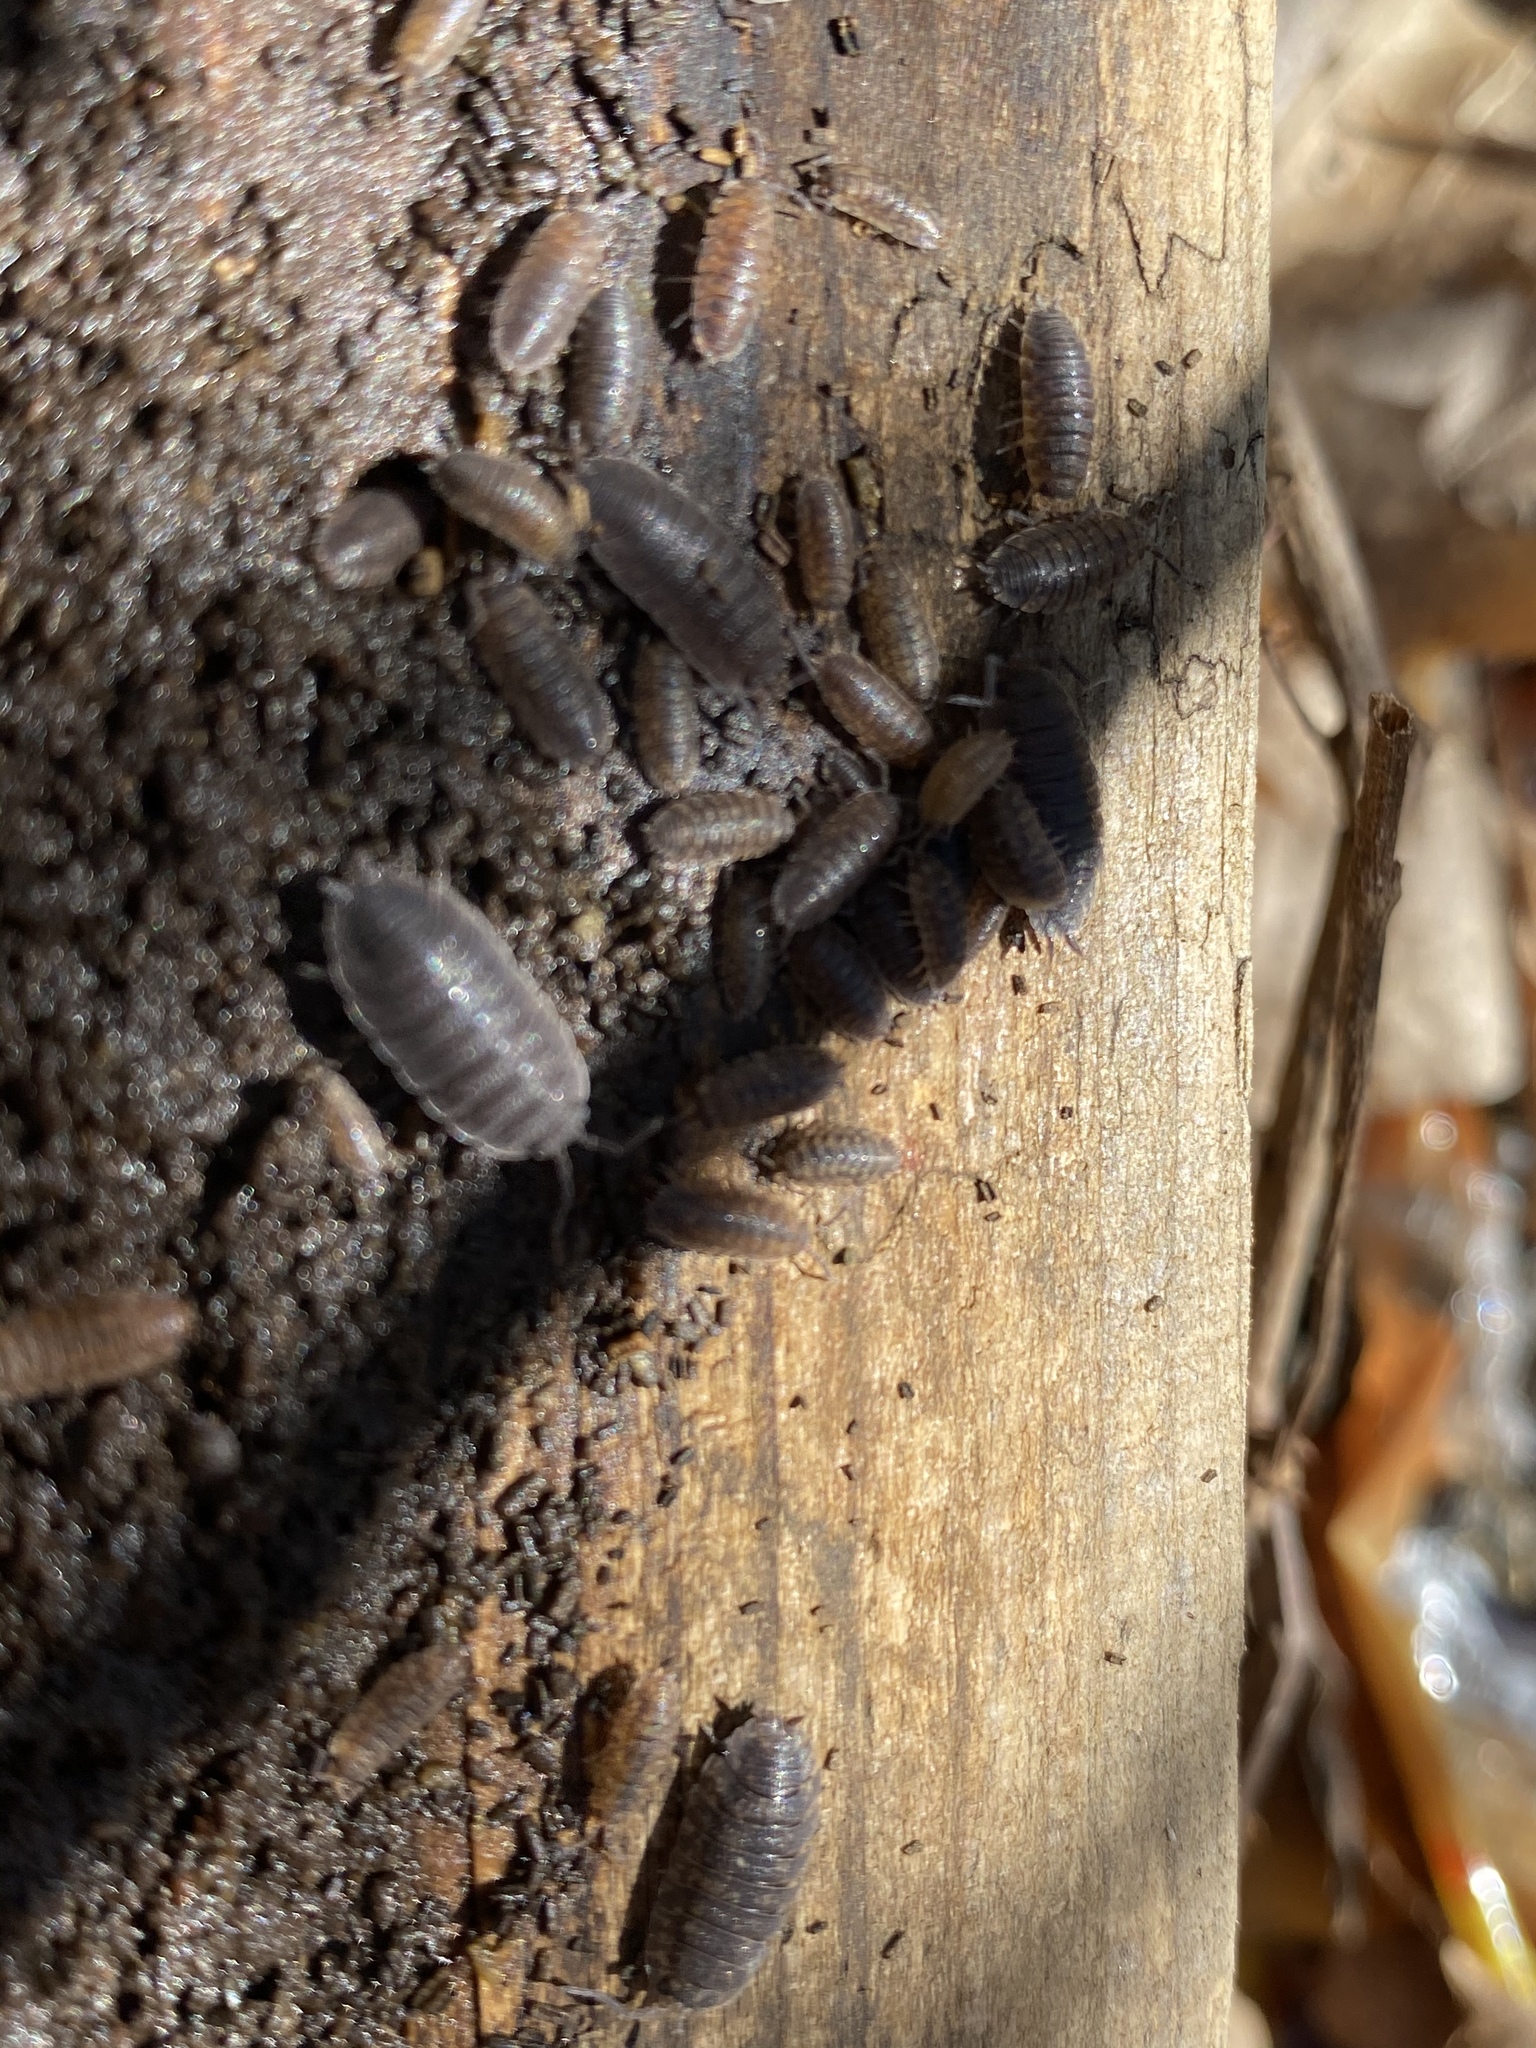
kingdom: Animalia
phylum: Arthropoda
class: Malacostraca
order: Isopoda
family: Porcellionidae
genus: Porcellio
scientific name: Porcellio scaber
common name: Common rough woodlouse
